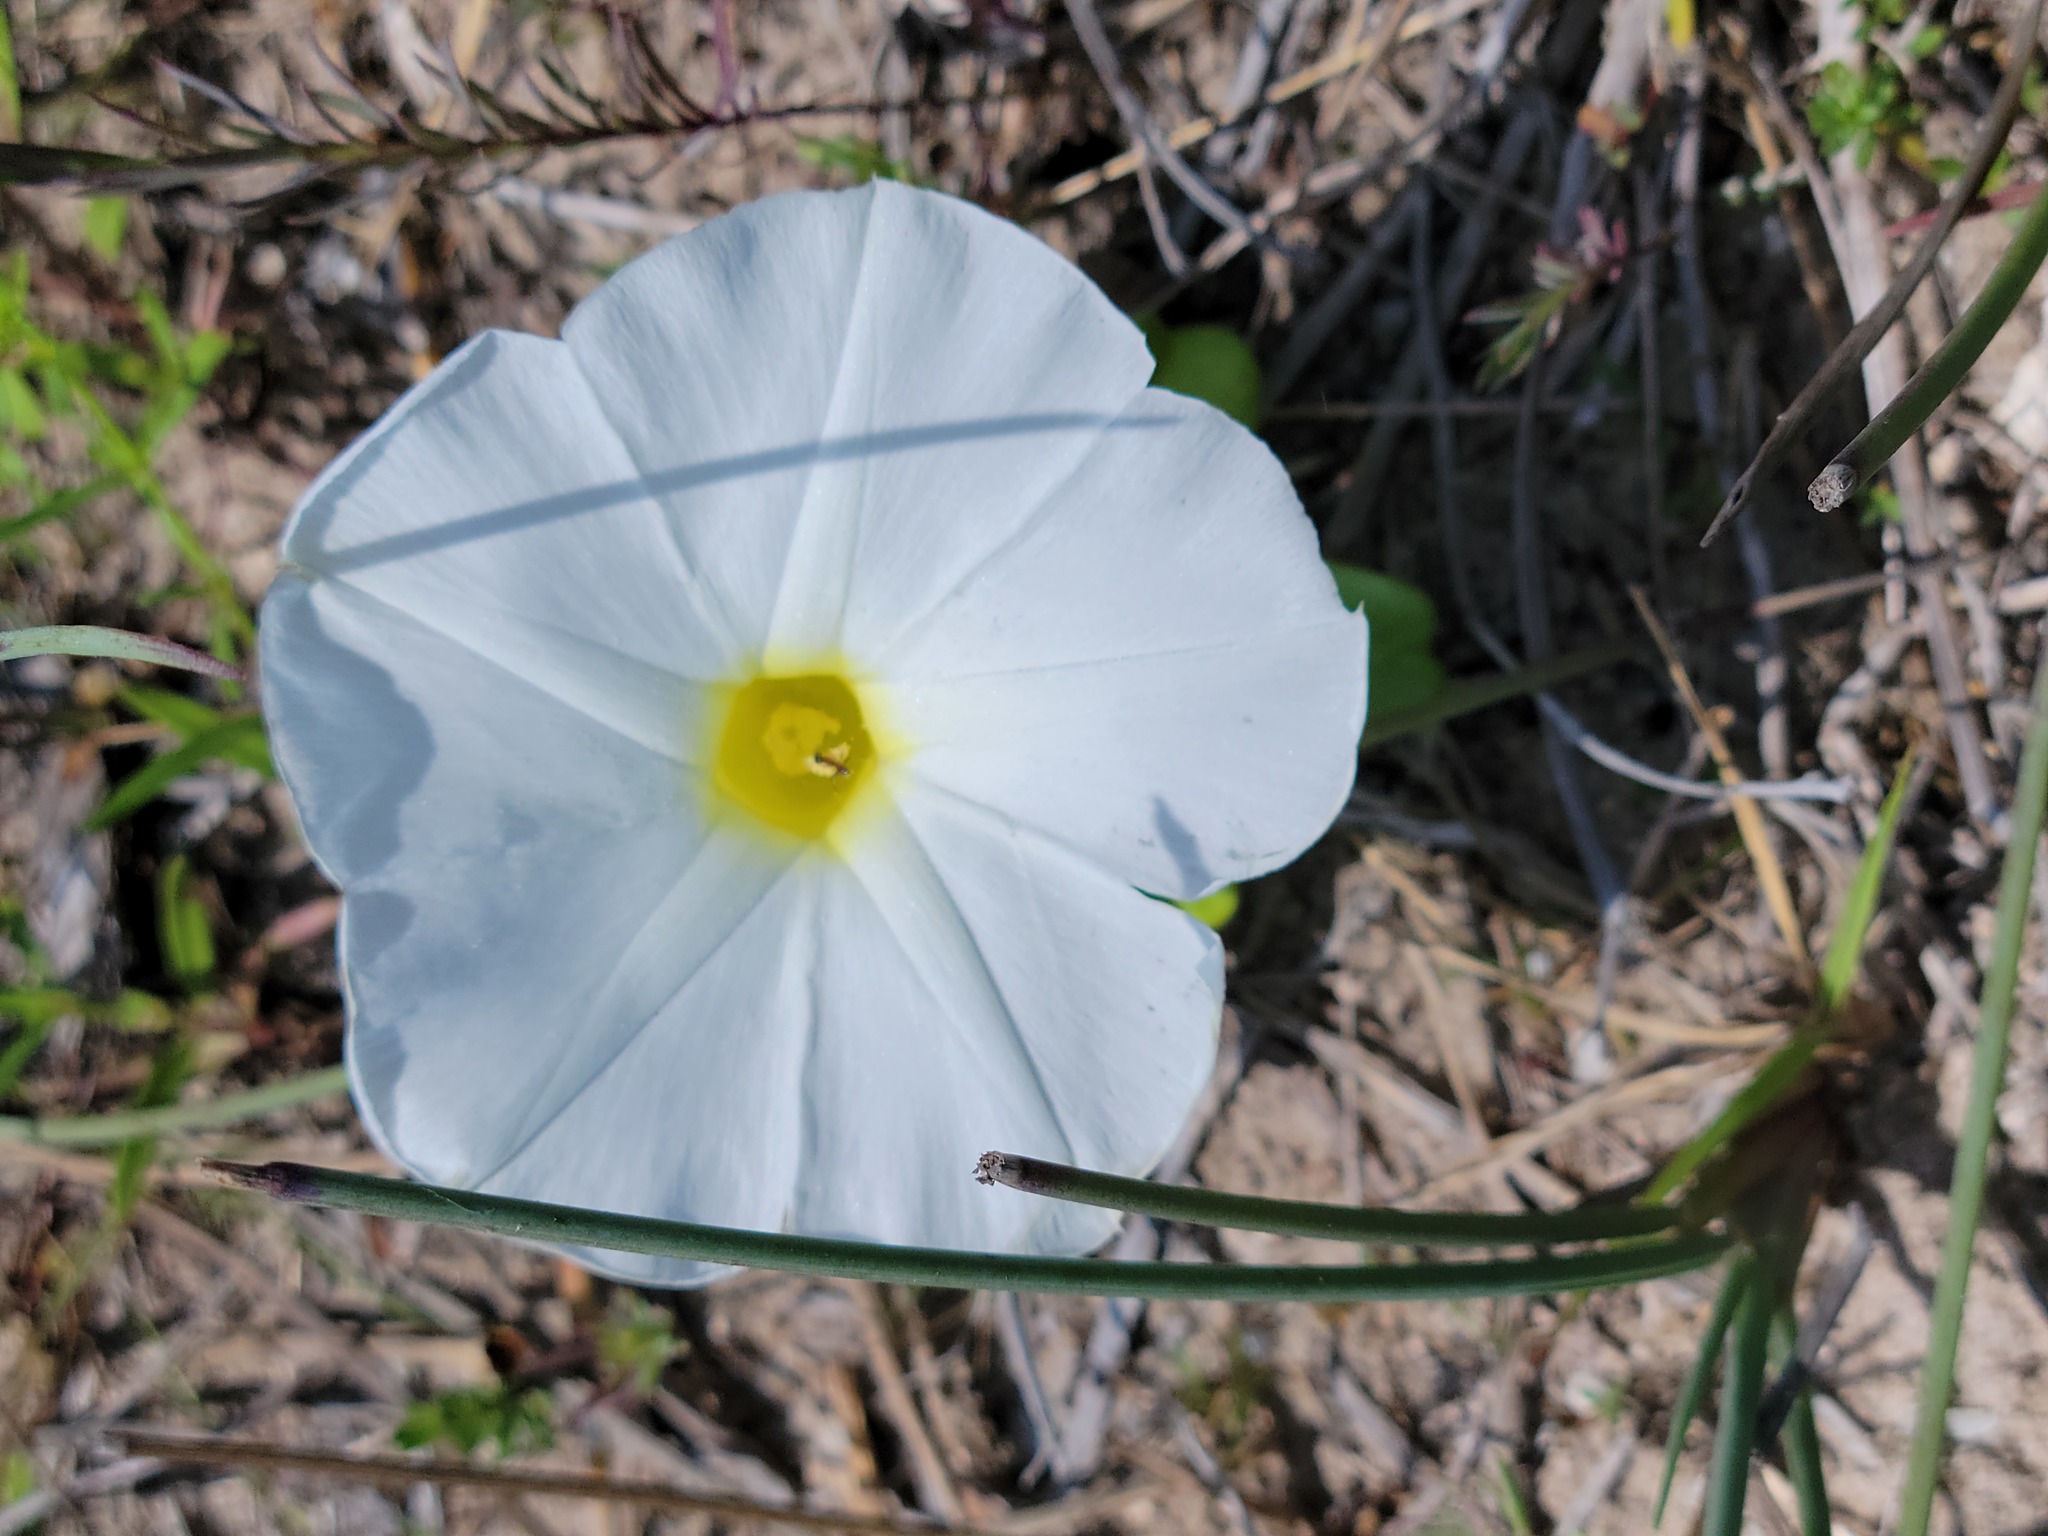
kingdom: Plantae
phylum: Tracheophyta
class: Magnoliopsida
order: Solanales
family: Convolvulaceae
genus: Ipomoea
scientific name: Ipomoea imperati
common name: Fiddle-leaf morning-glory
